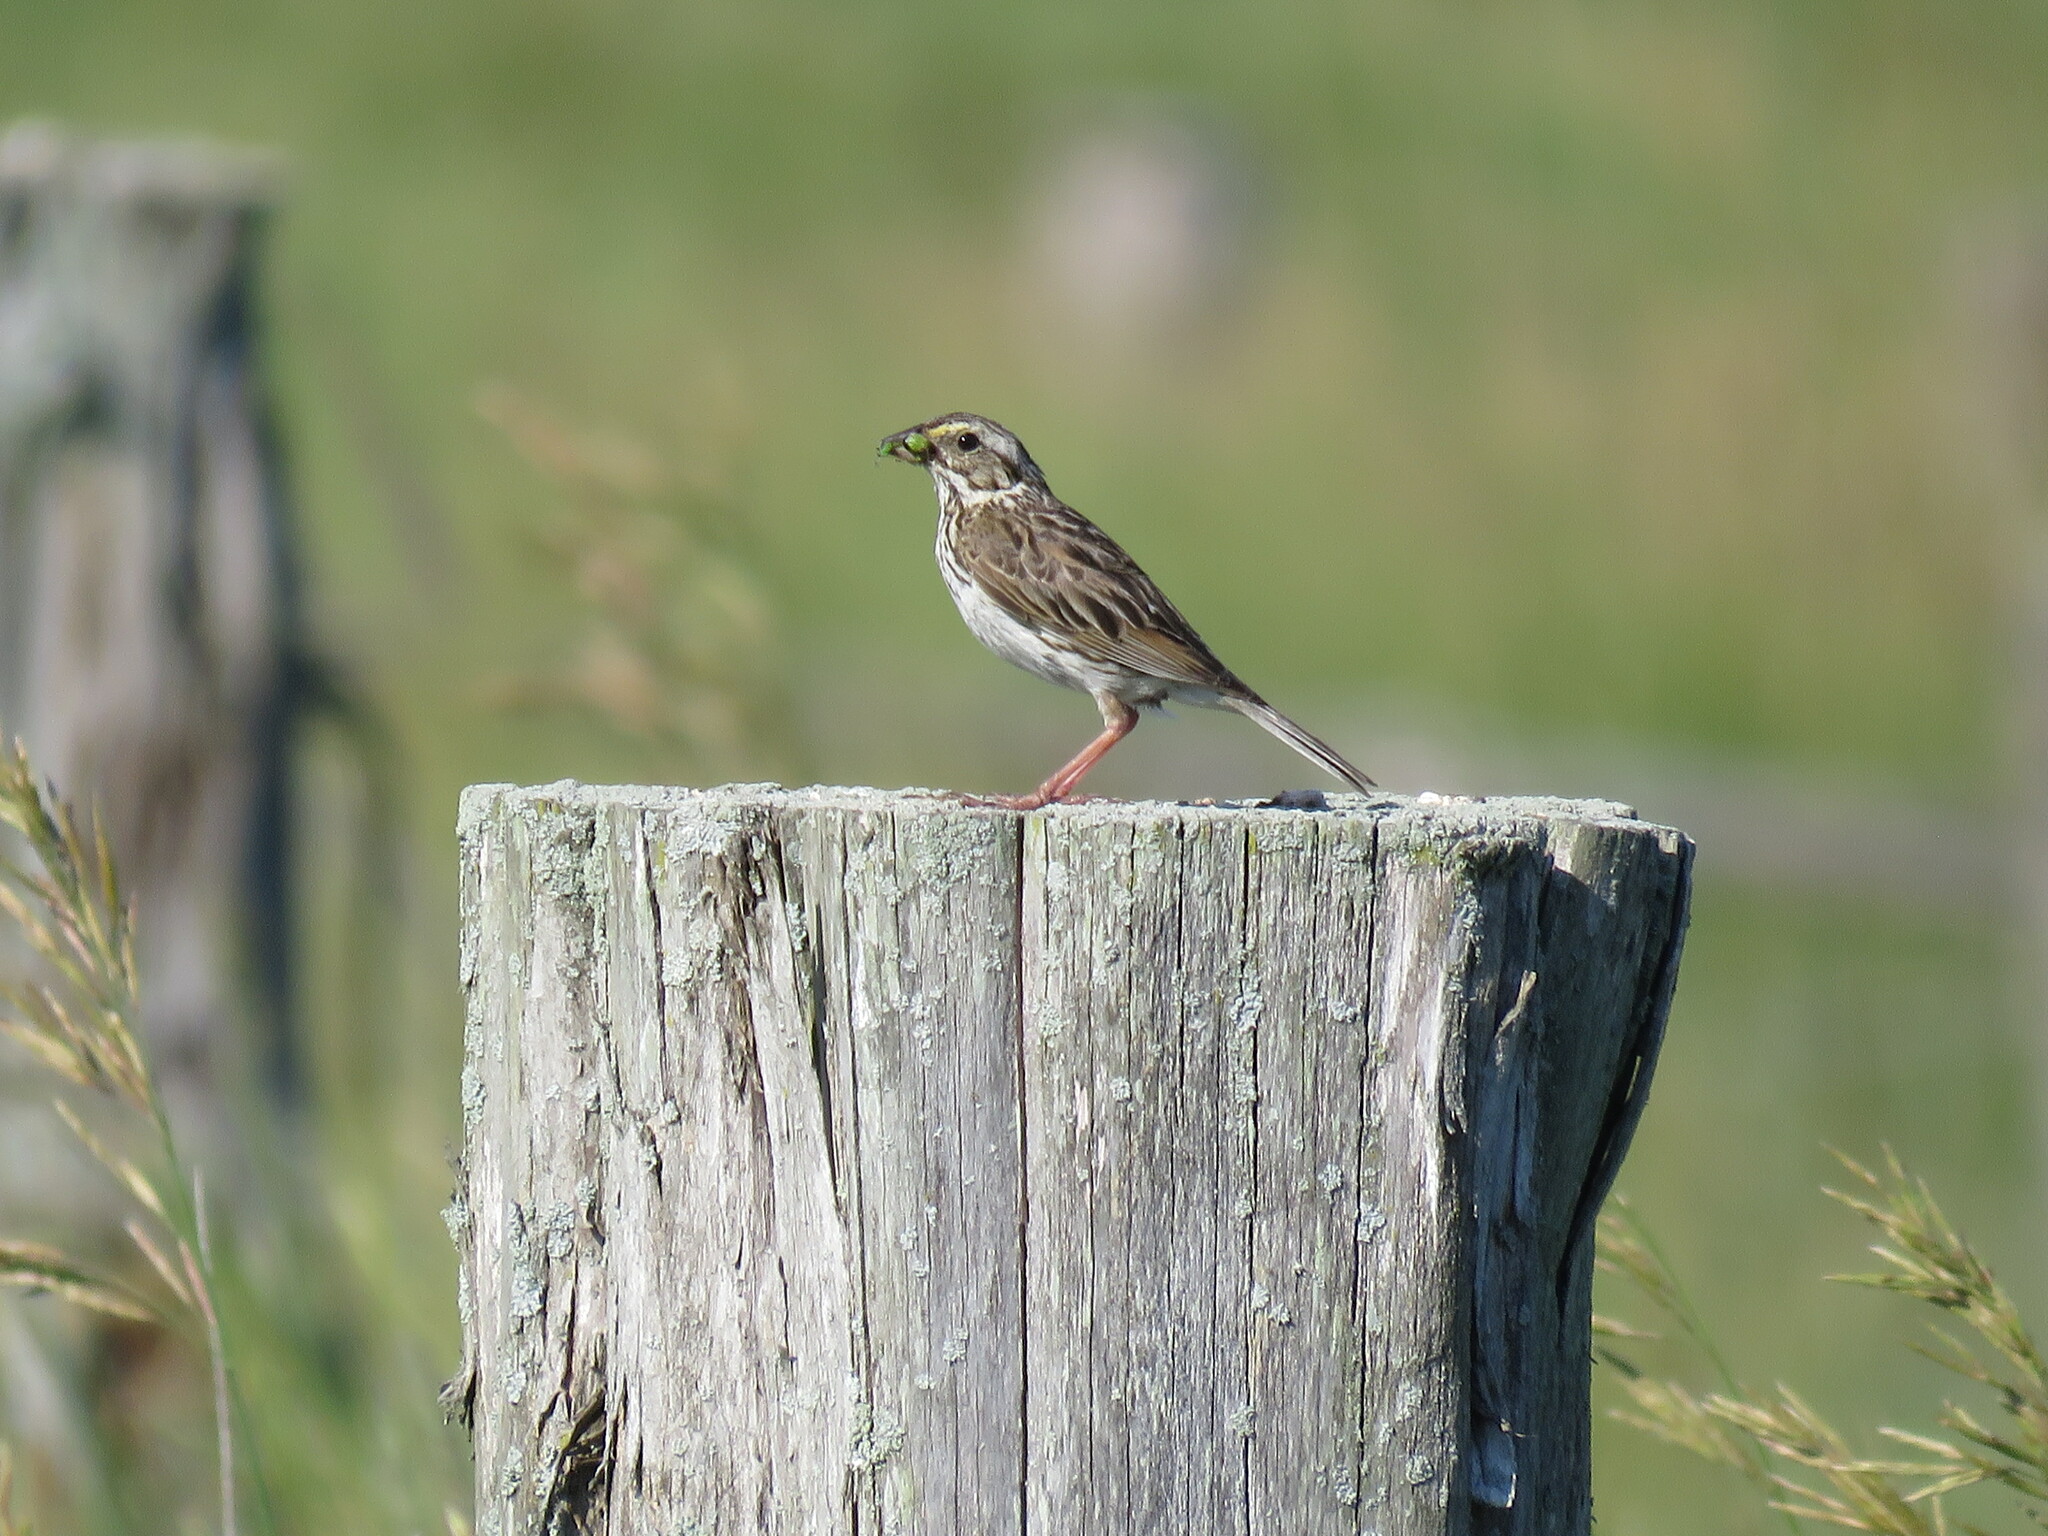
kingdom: Animalia
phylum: Chordata
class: Aves
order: Passeriformes
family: Passerellidae
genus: Passerculus
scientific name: Passerculus sandwichensis
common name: Savannah sparrow
